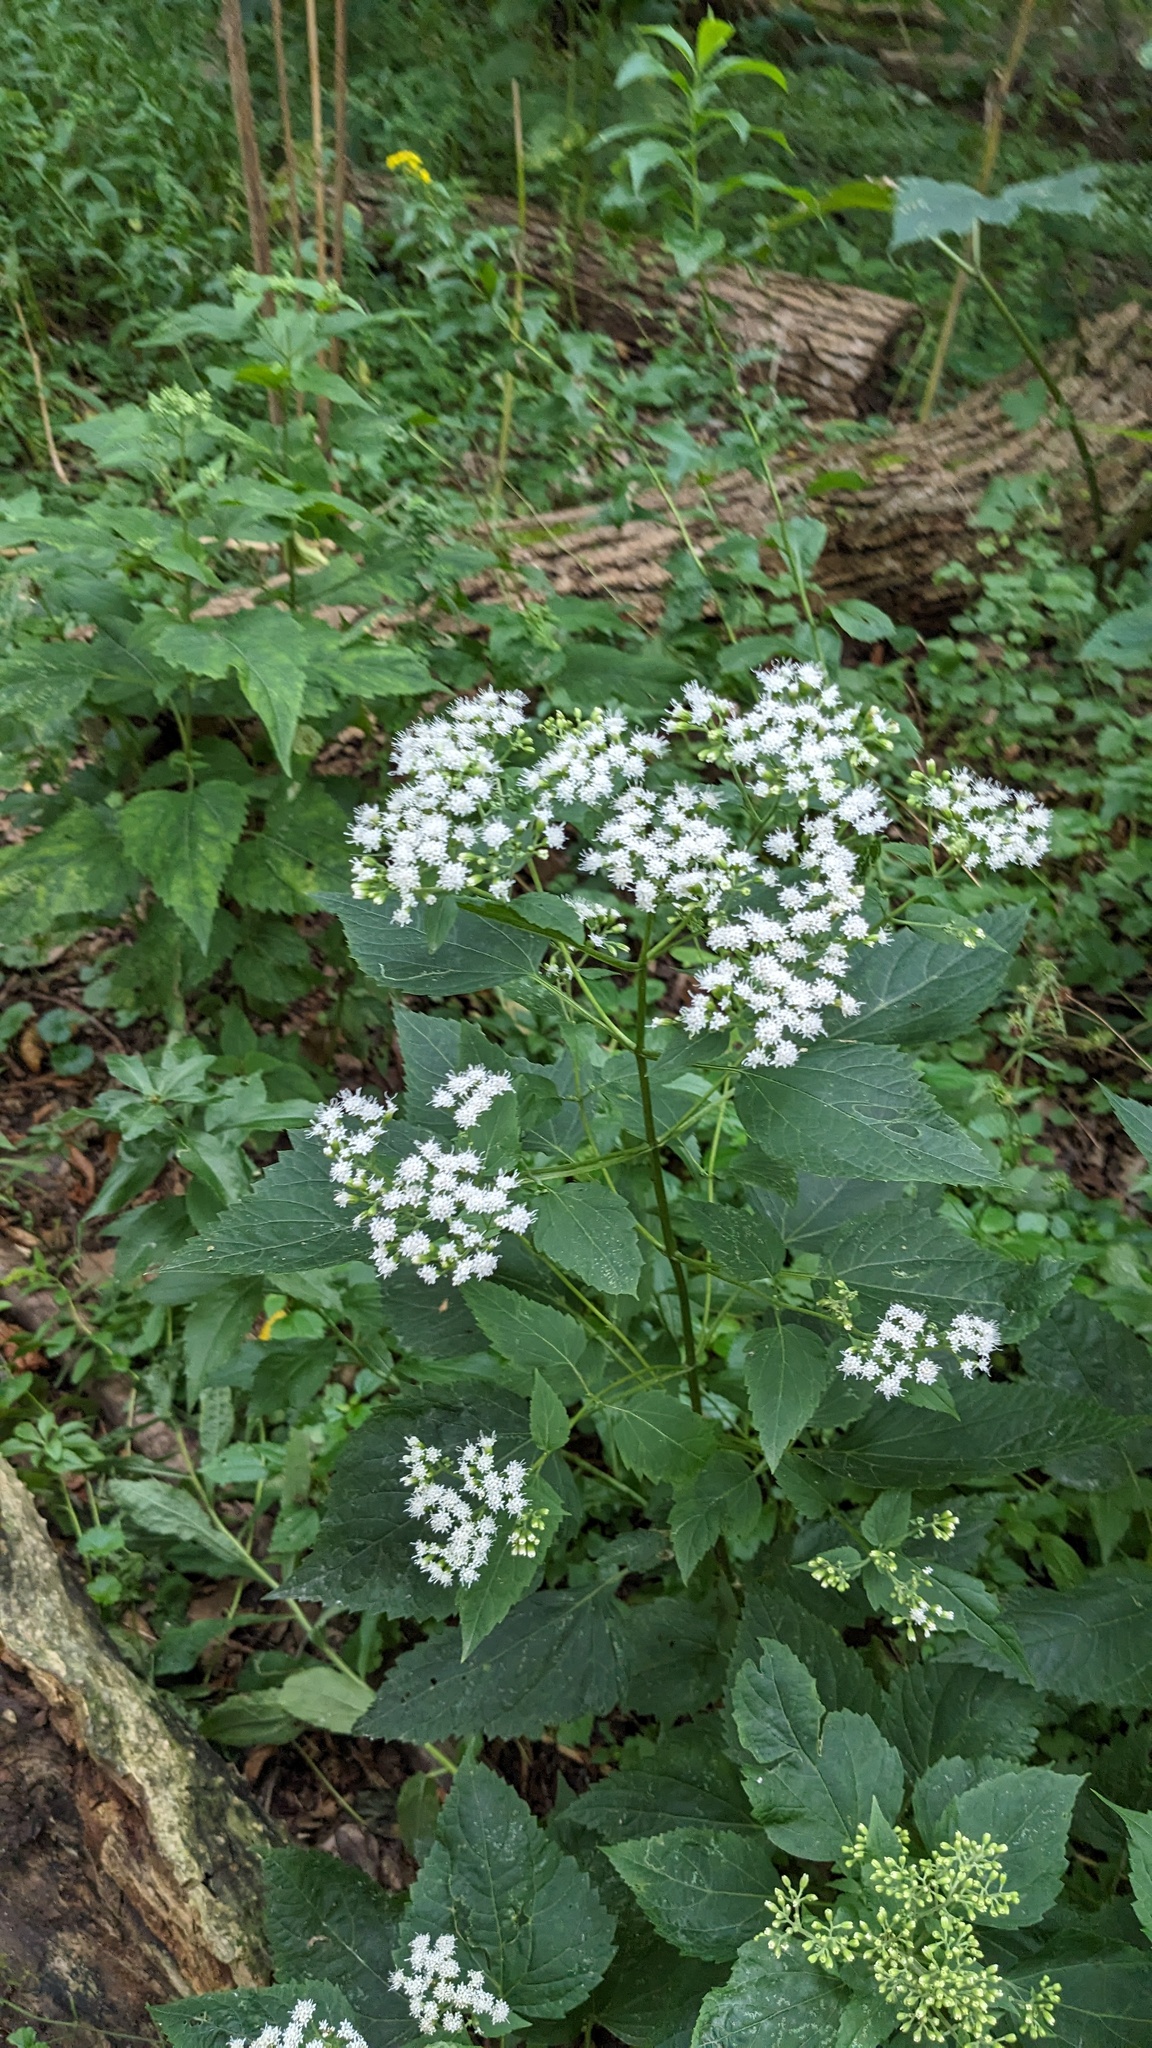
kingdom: Plantae
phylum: Tracheophyta
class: Magnoliopsida
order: Asterales
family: Asteraceae
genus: Ageratina
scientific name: Ageratina altissima
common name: White snakeroot
